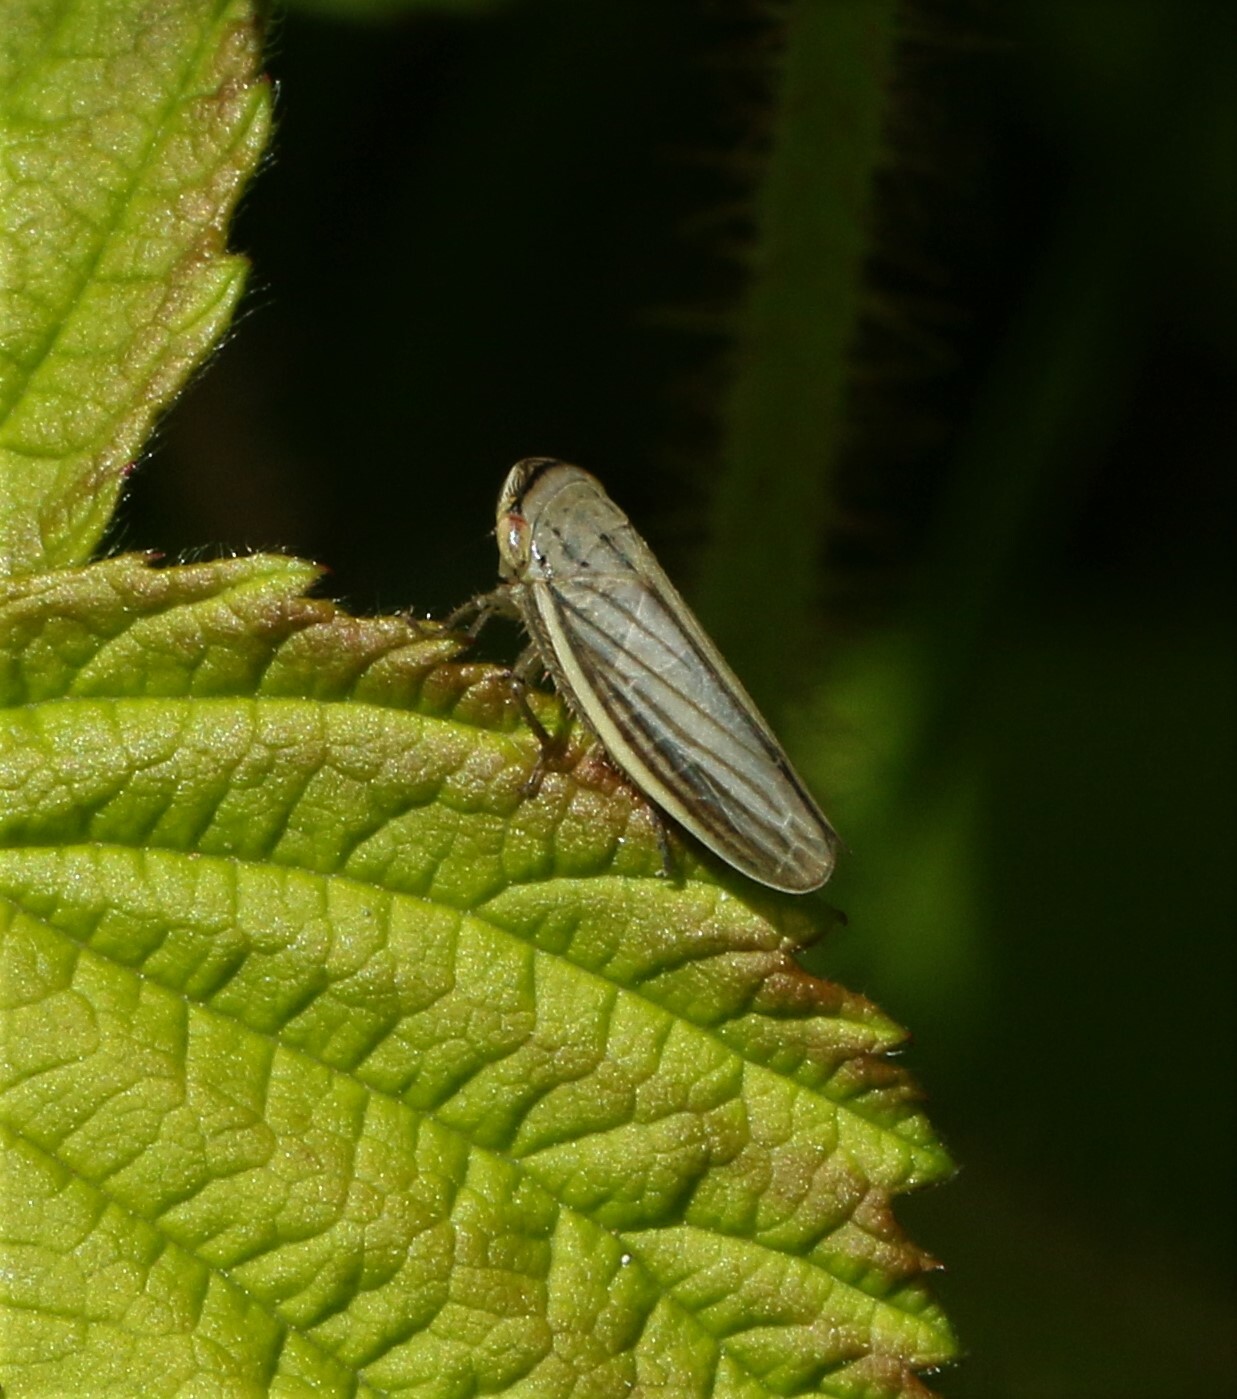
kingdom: Animalia
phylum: Arthropoda
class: Insecta
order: Hemiptera
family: Cicadellidae
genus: Athysanus
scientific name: Athysanus argentarius
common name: Silver leafhopper
